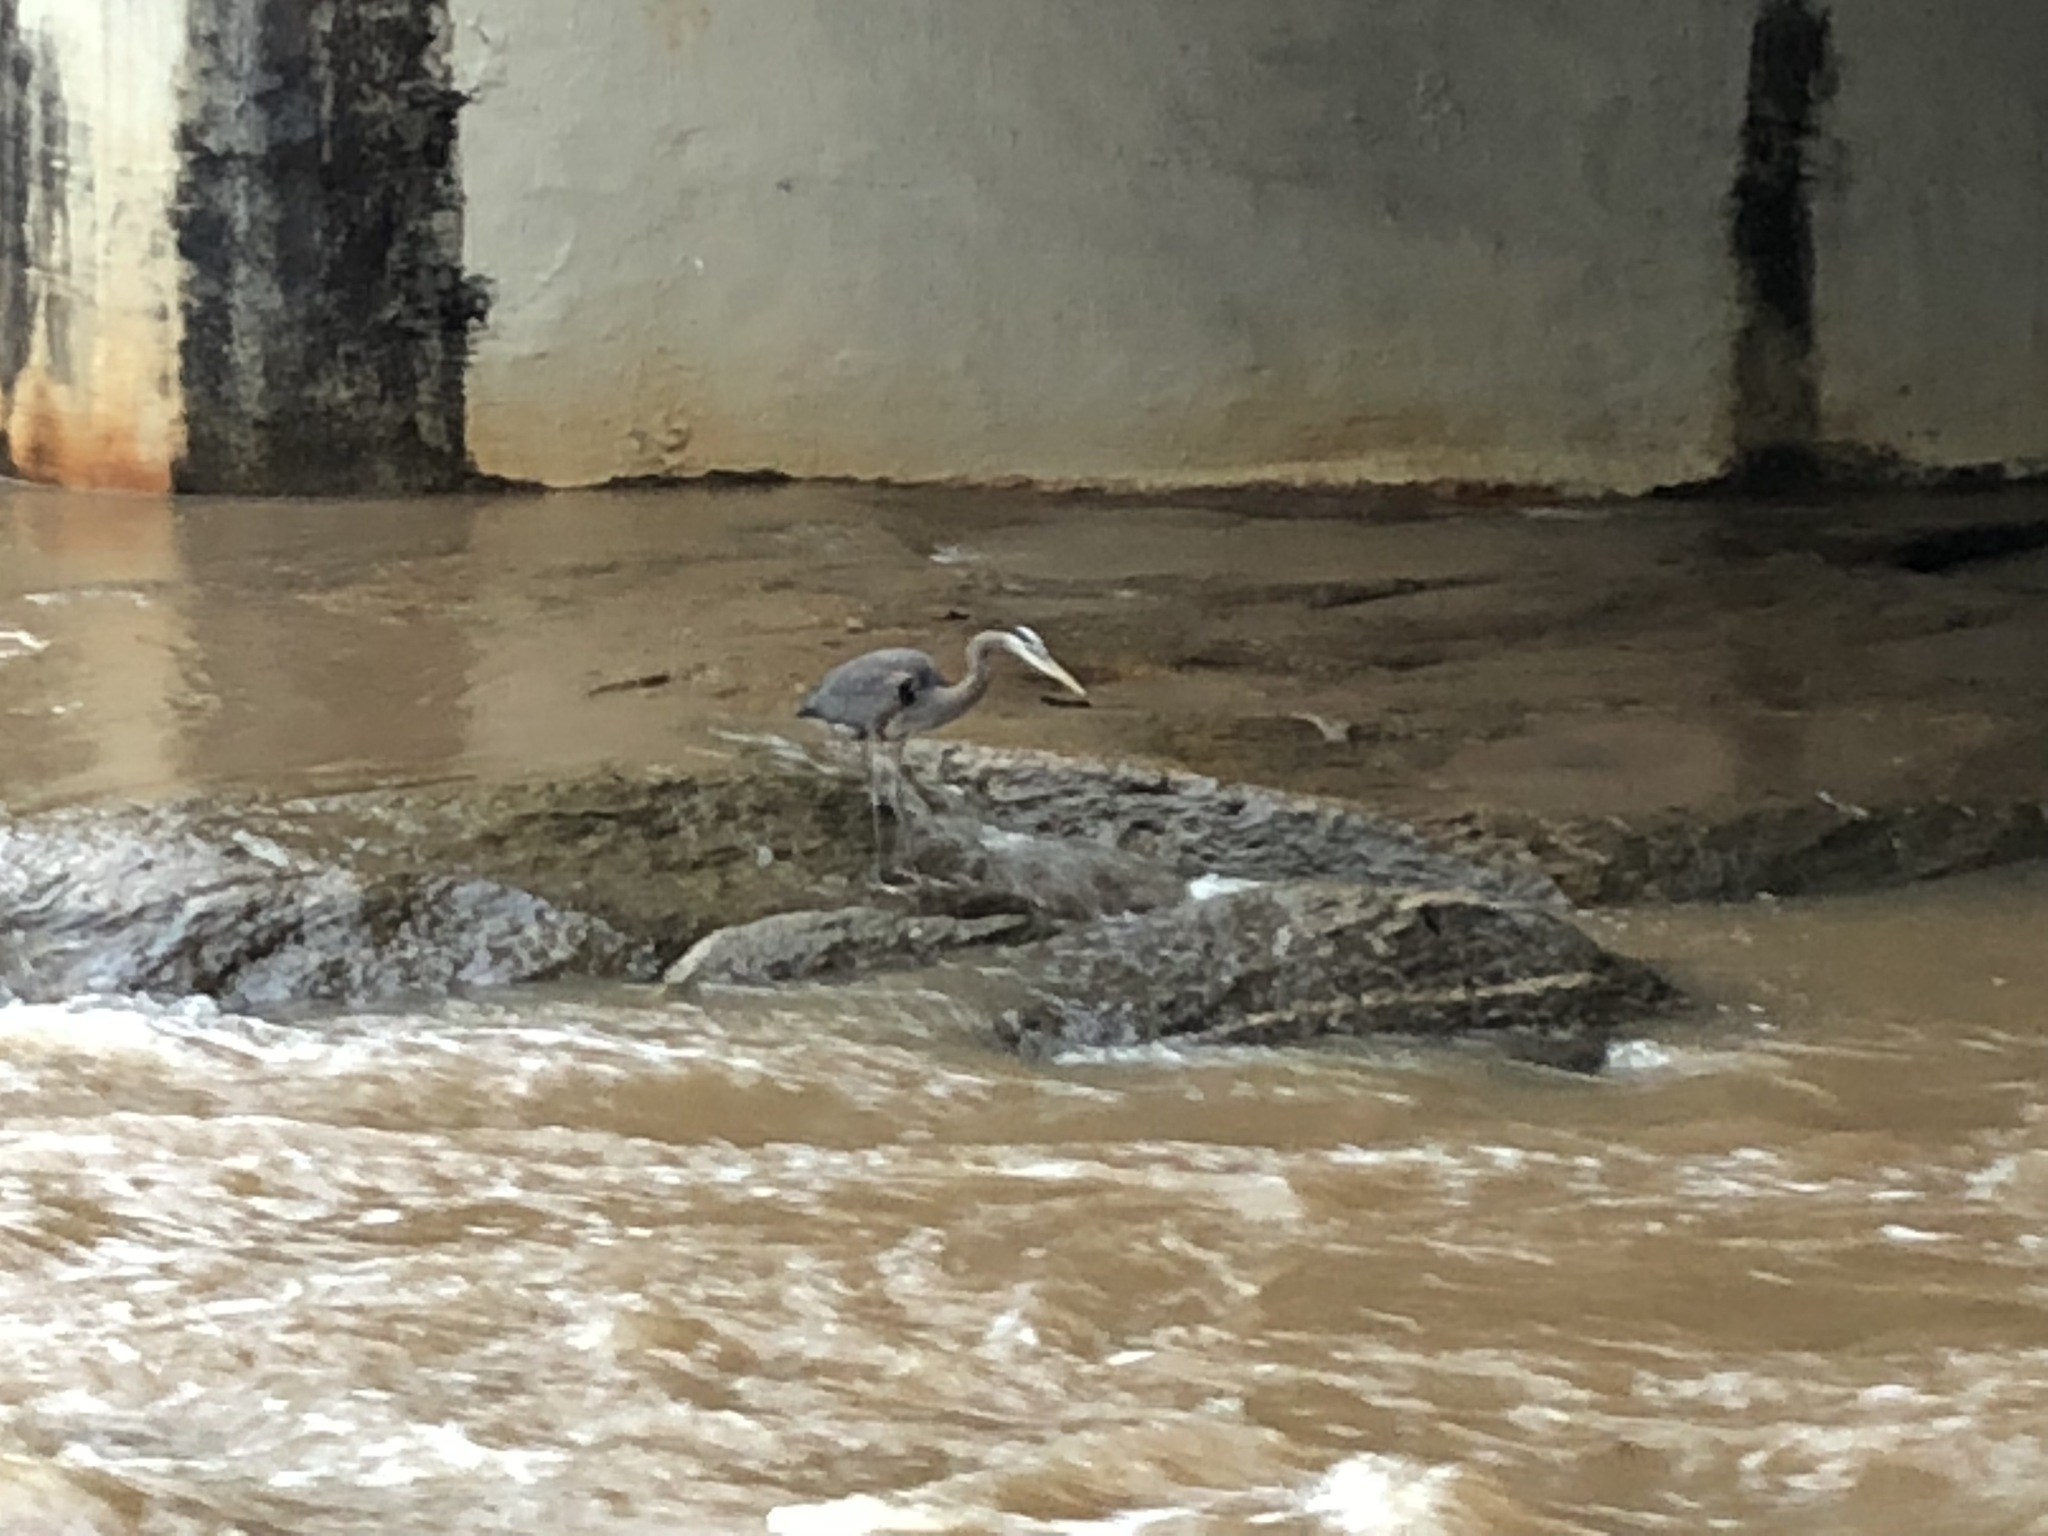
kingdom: Animalia
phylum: Chordata
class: Aves
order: Pelecaniformes
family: Ardeidae
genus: Ardea
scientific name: Ardea herodias
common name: Great blue heron
